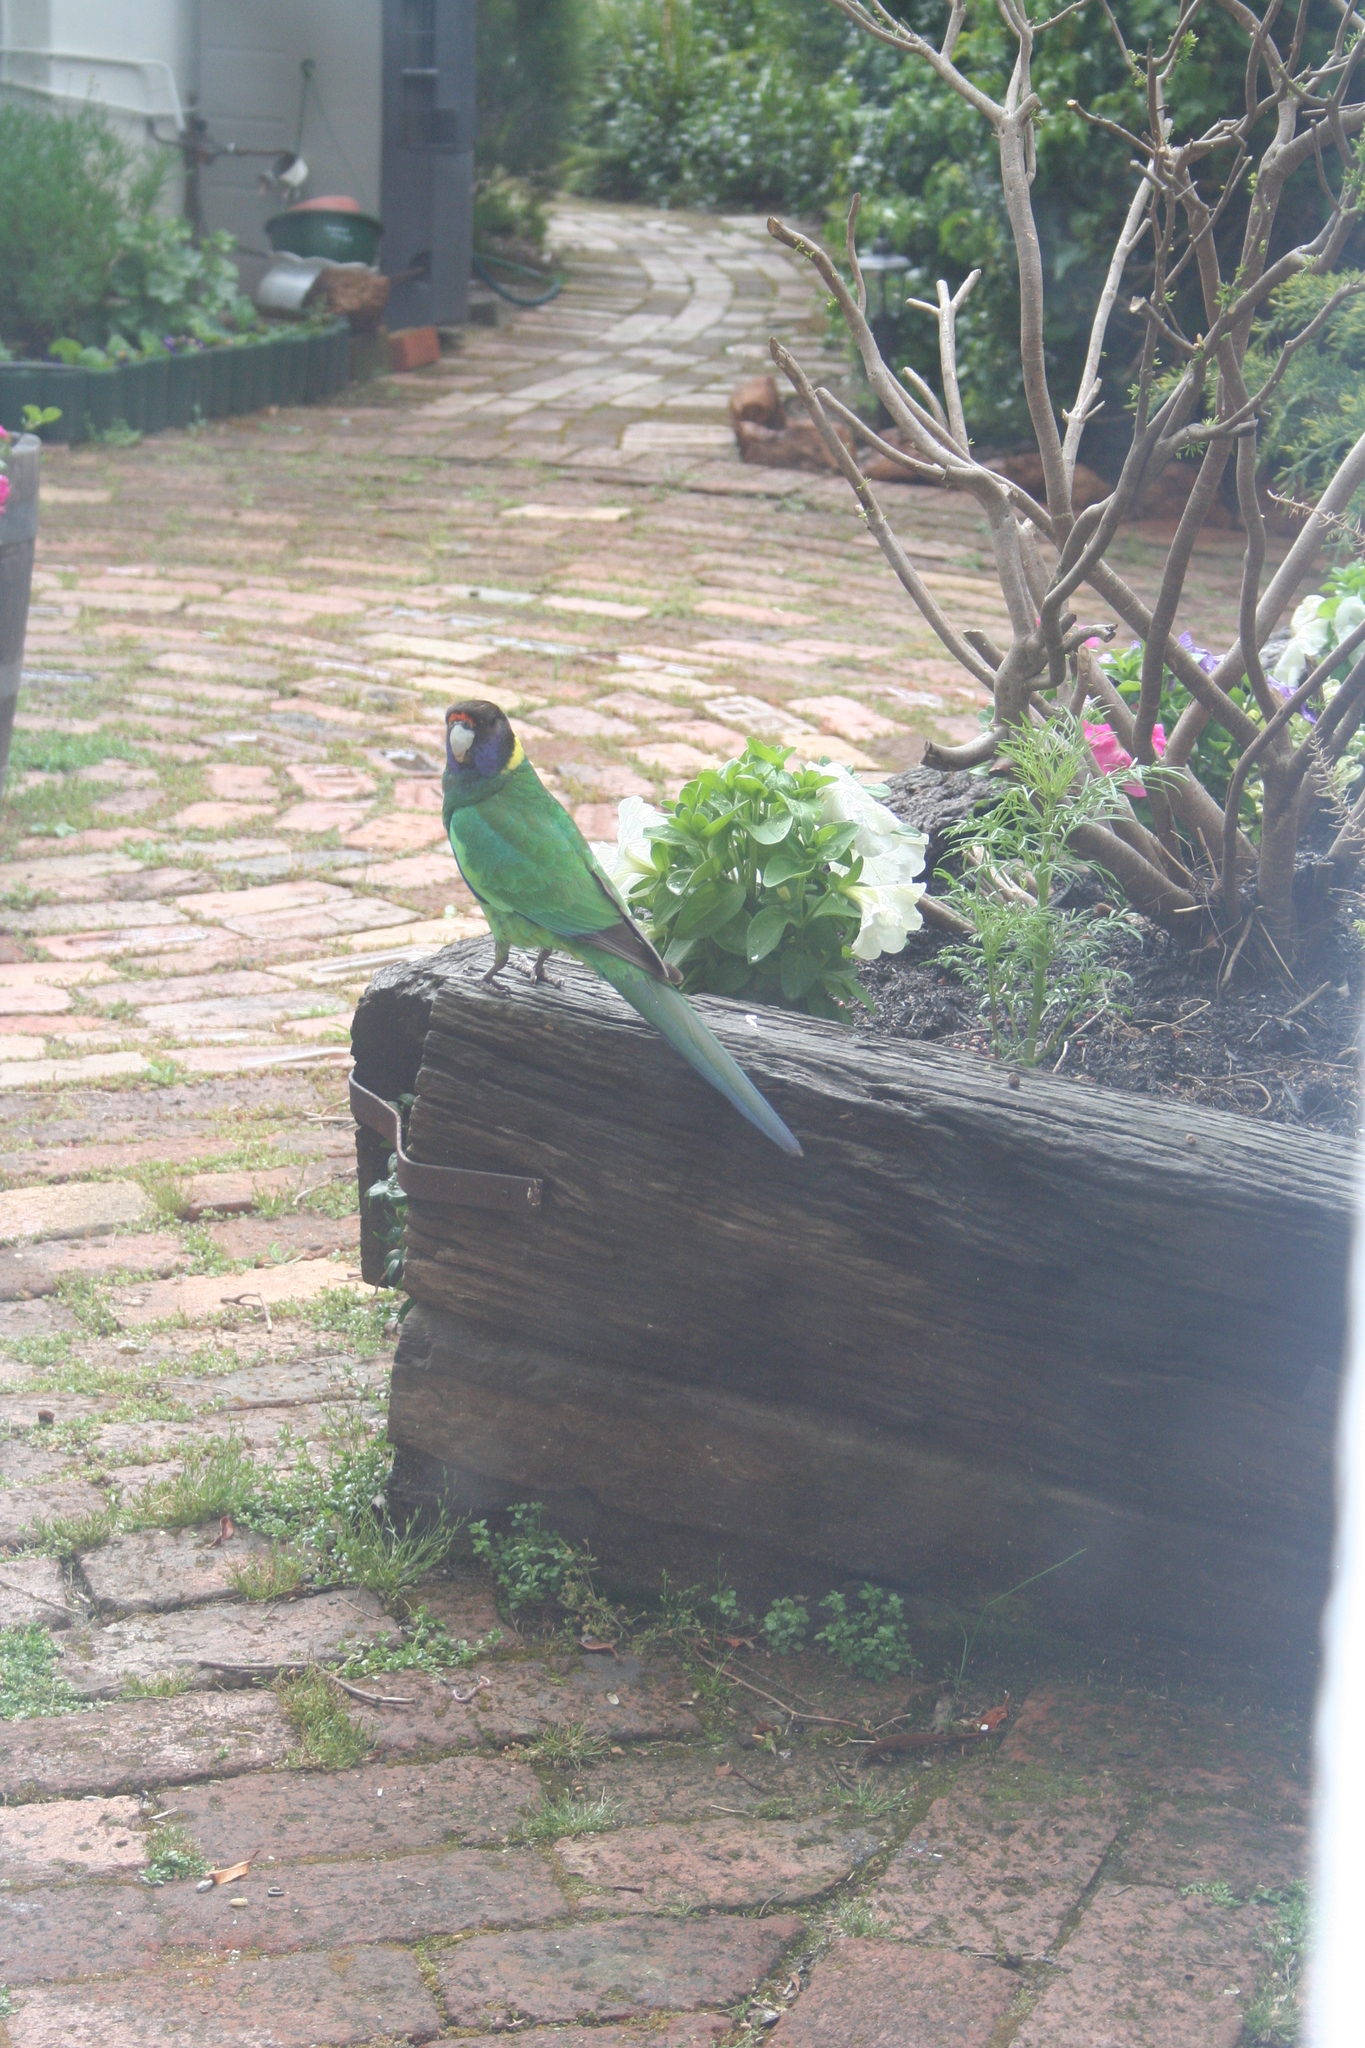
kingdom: Animalia
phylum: Chordata
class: Aves
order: Psittaciformes
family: Psittacidae
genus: Barnardius
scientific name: Barnardius zonarius
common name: Australian ringneck
